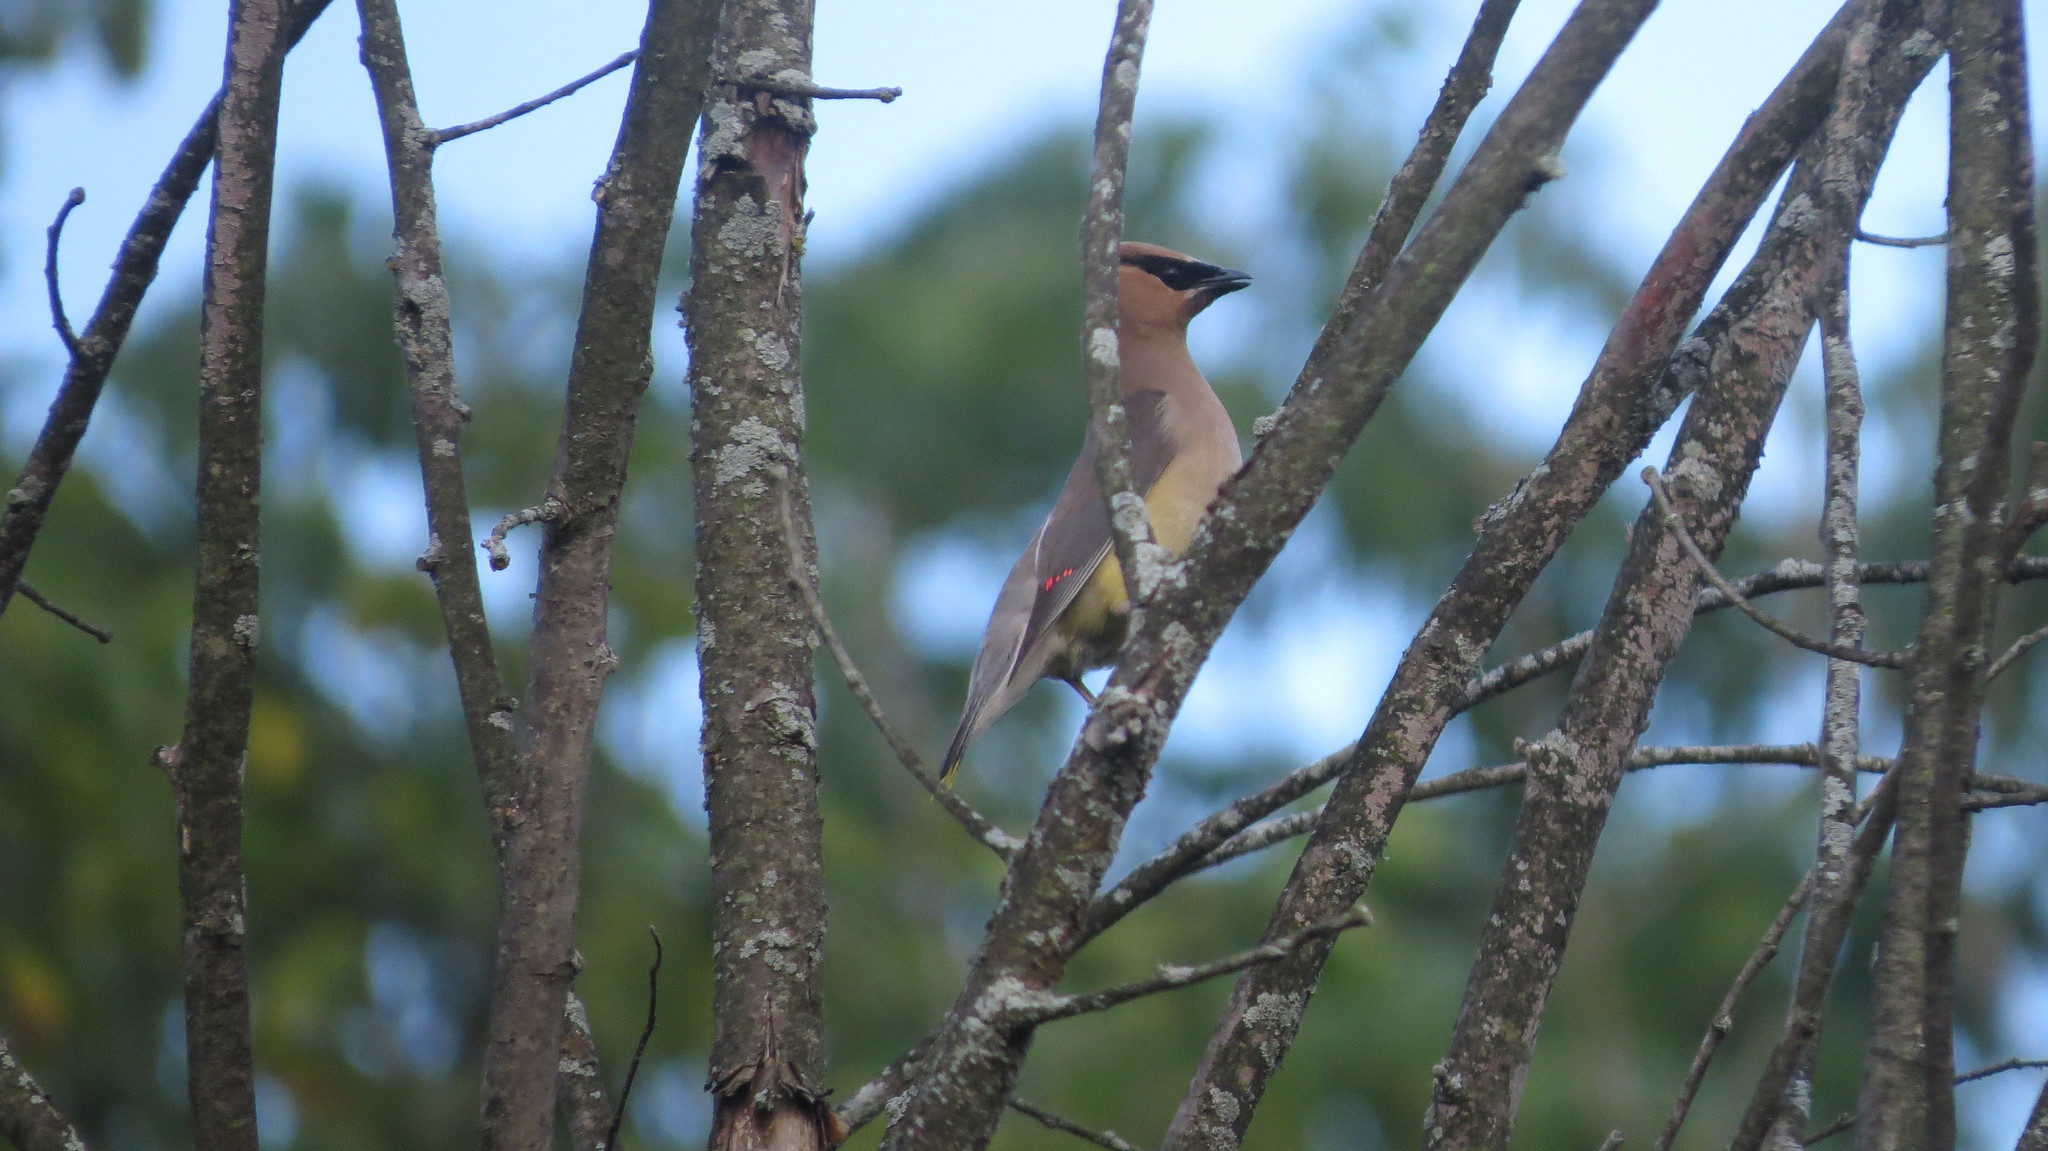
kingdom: Animalia
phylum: Chordata
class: Aves
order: Passeriformes
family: Bombycillidae
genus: Bombycilla
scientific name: Bombycilla cedrorum
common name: Cedar waxwing
